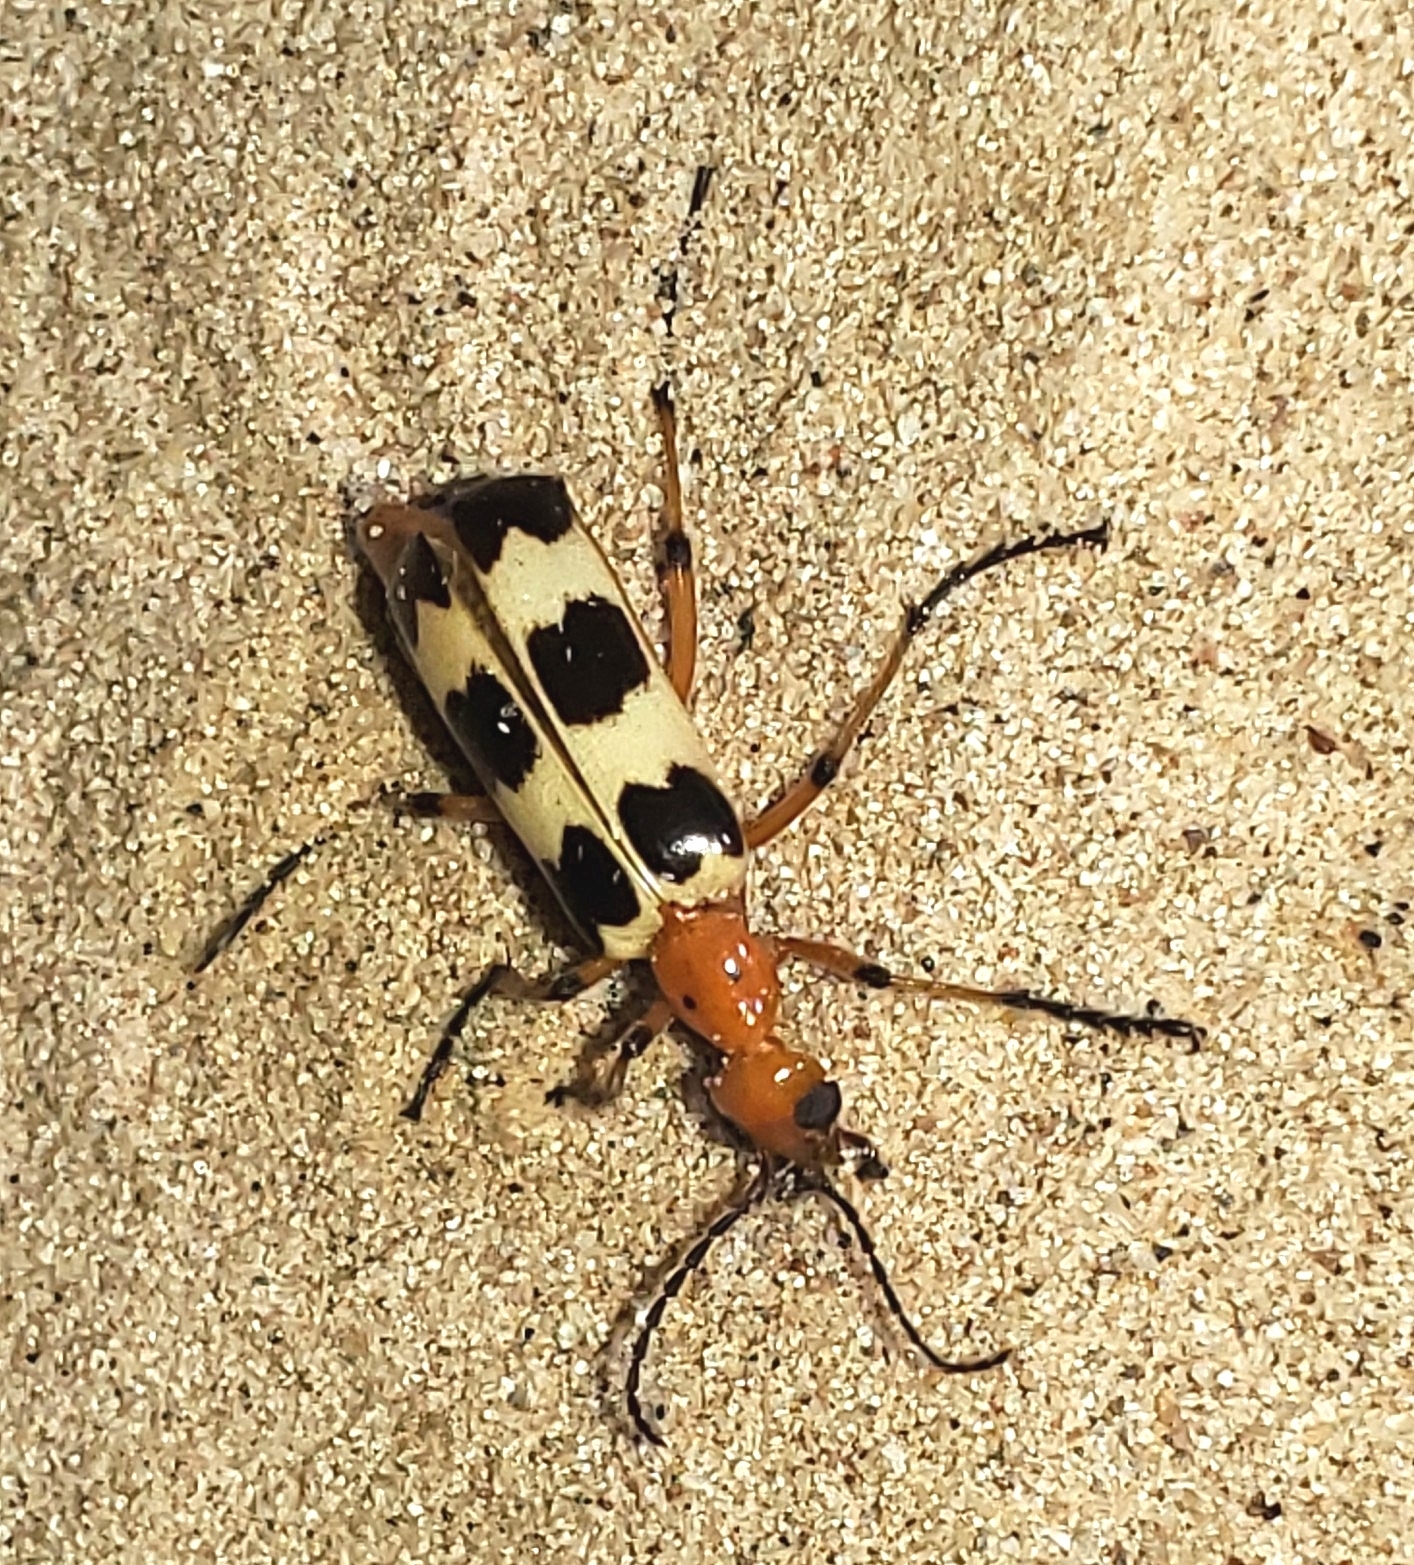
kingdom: Animalia
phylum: Arthropoda
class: Insecta
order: Coleoptera
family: Meloidae
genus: Pyrota
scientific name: Pyrota palpalis
